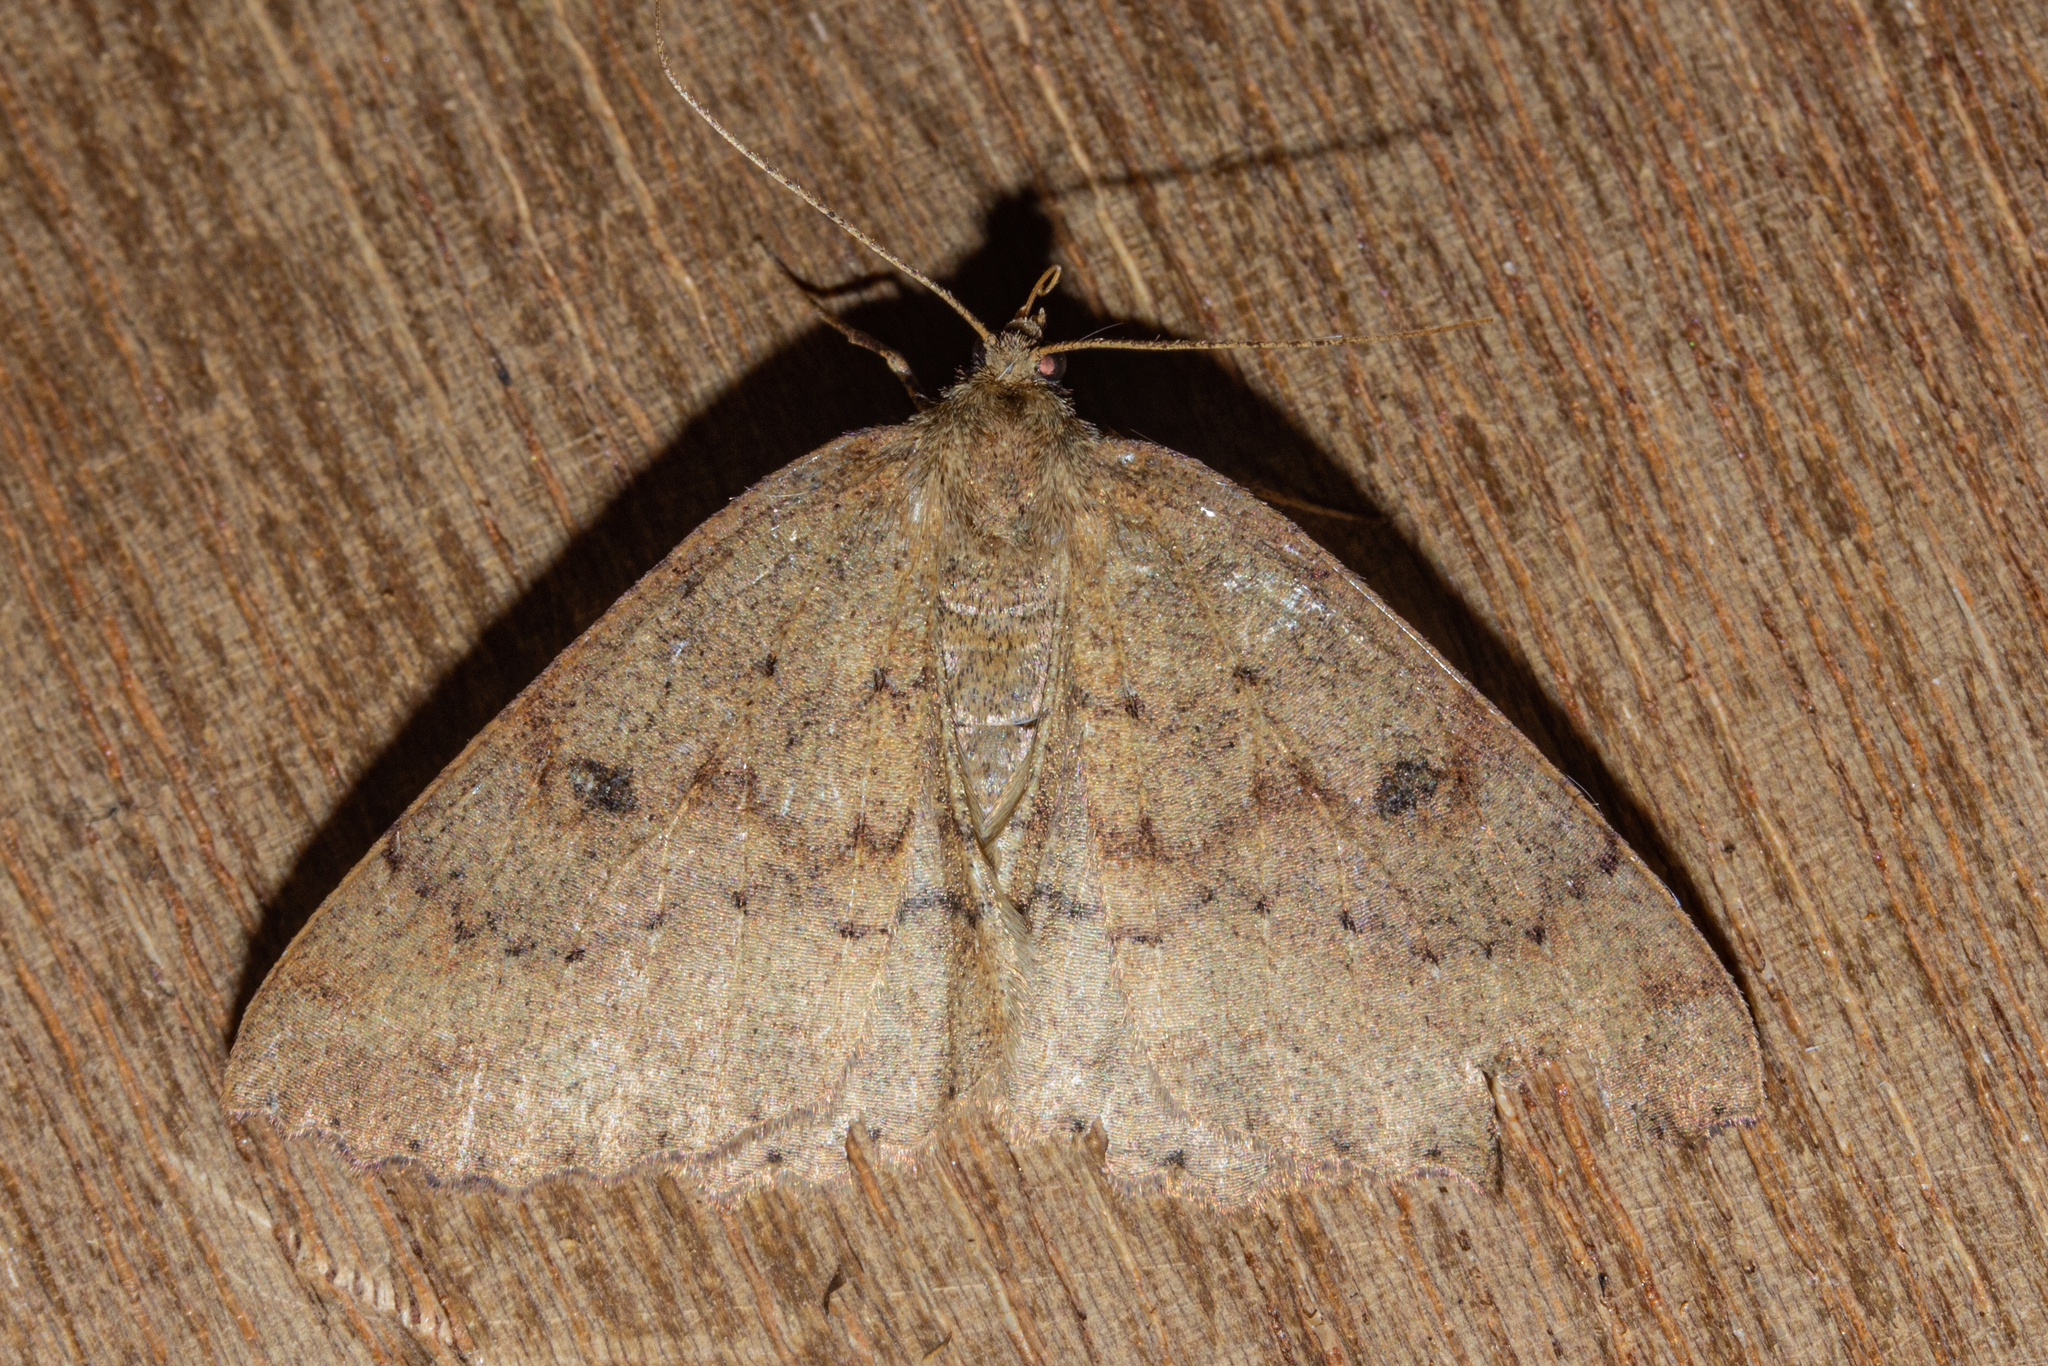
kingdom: Animalia
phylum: Arthropoda
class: Insecta
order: Lepidoptera
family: Geometridae
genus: Cleora
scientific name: Cleora scriptaria
